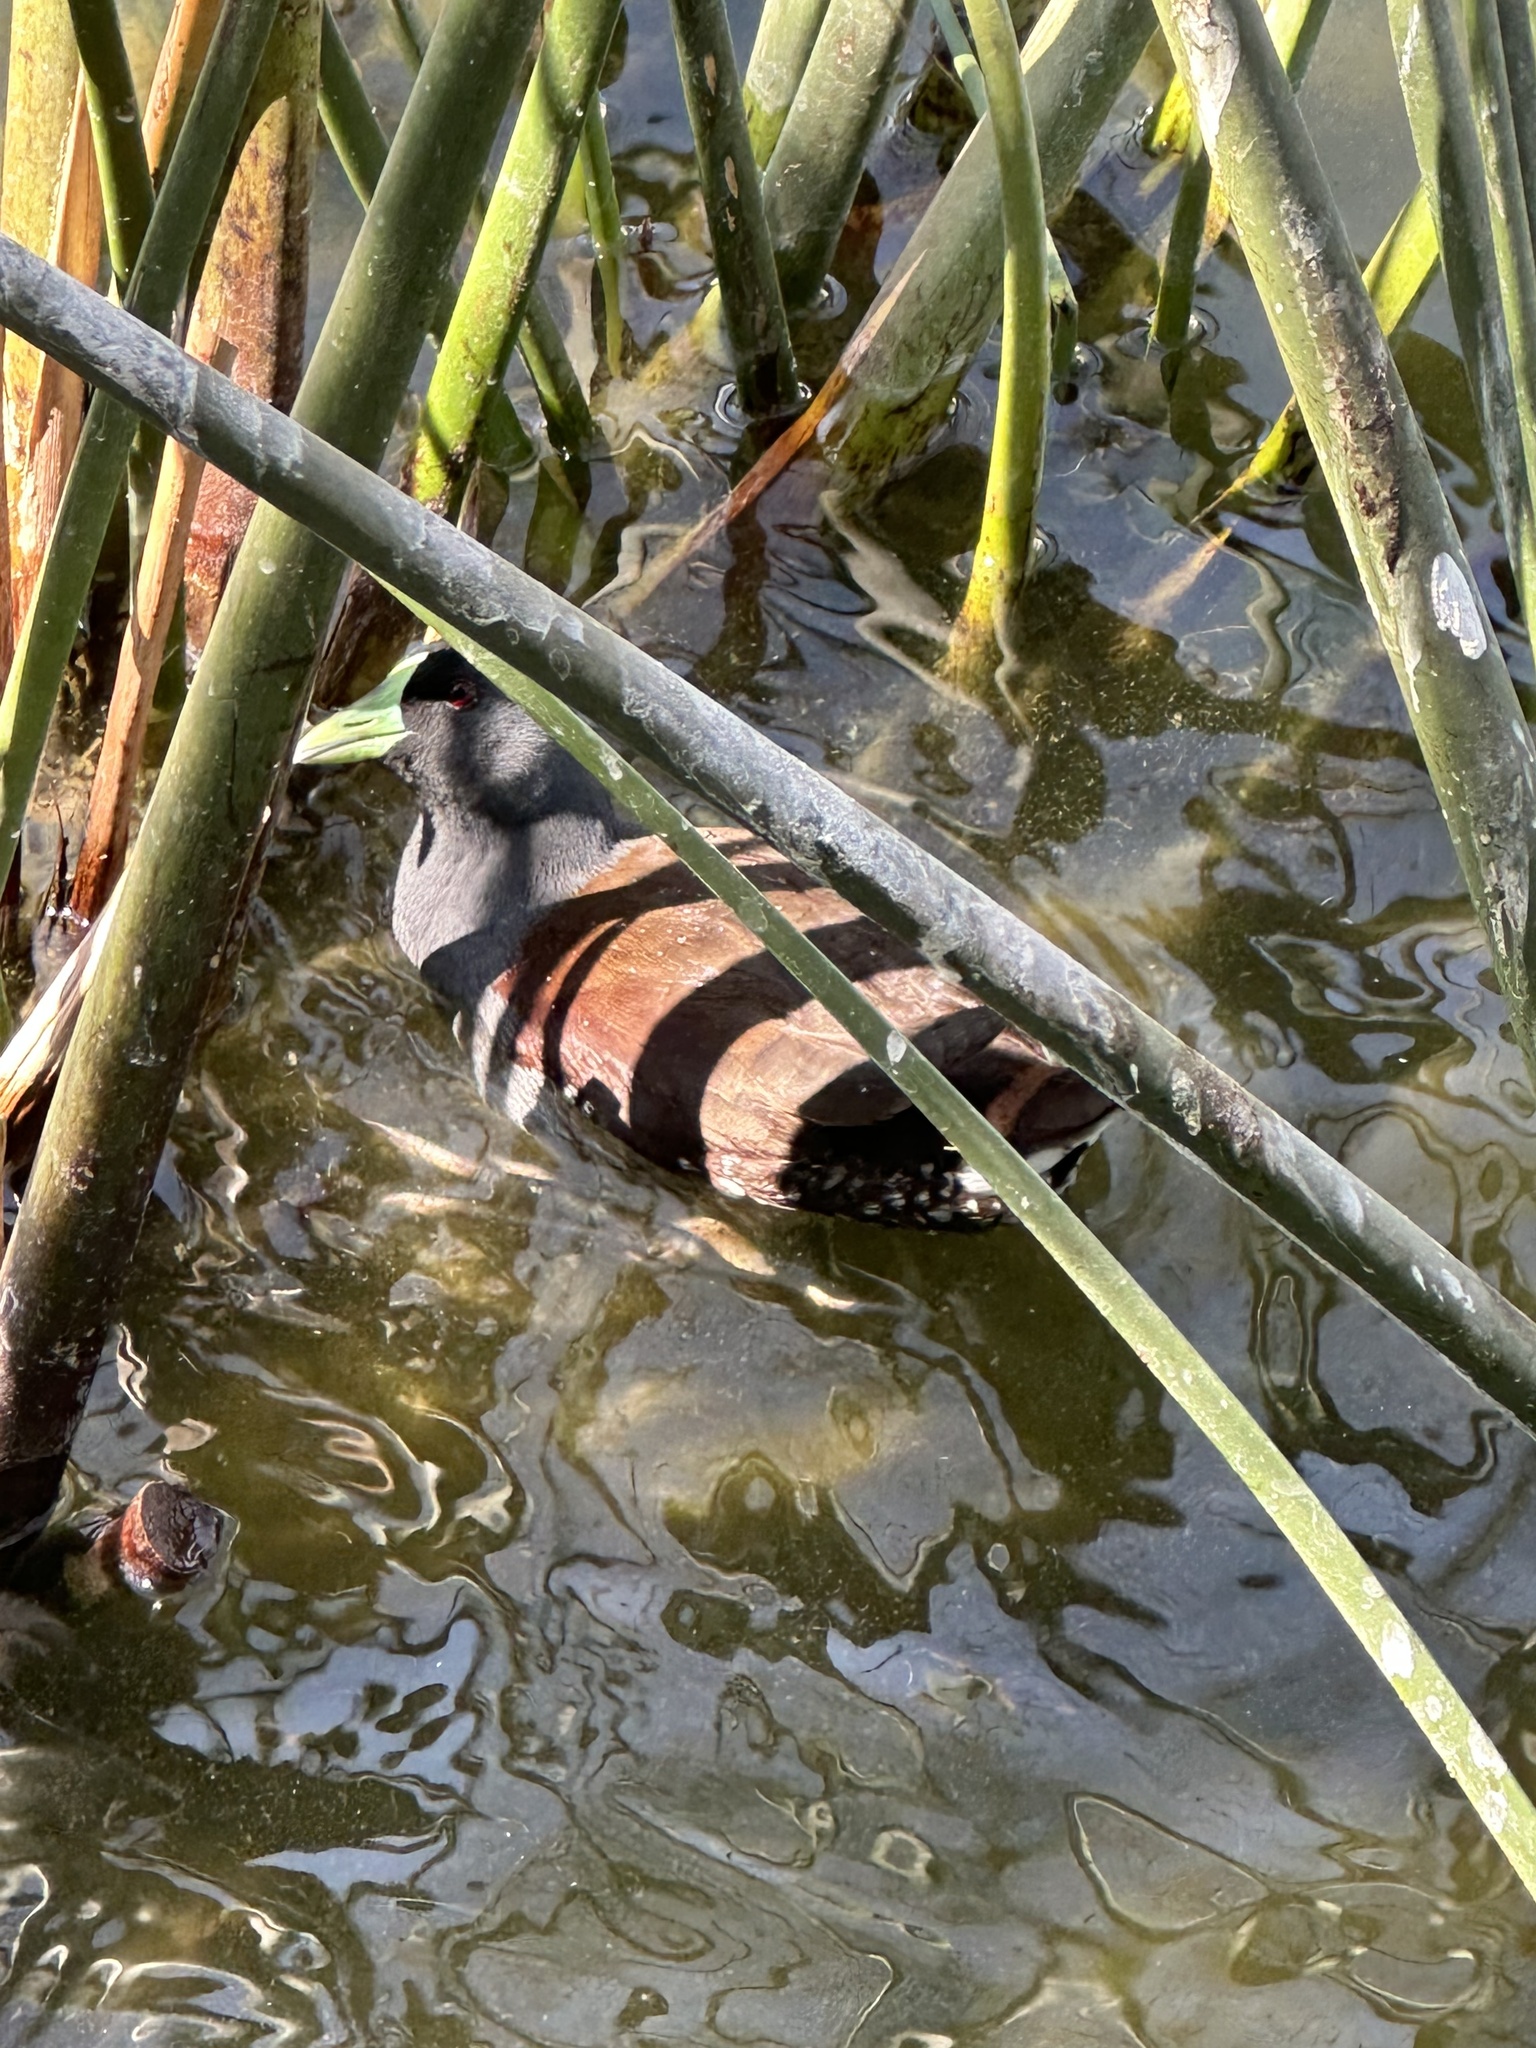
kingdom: Animalia
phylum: Chordata
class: Aves
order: Gruiformes
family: Rallidae
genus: Gallinula
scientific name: Gallinula melanops
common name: Spot-flanked gallinule
